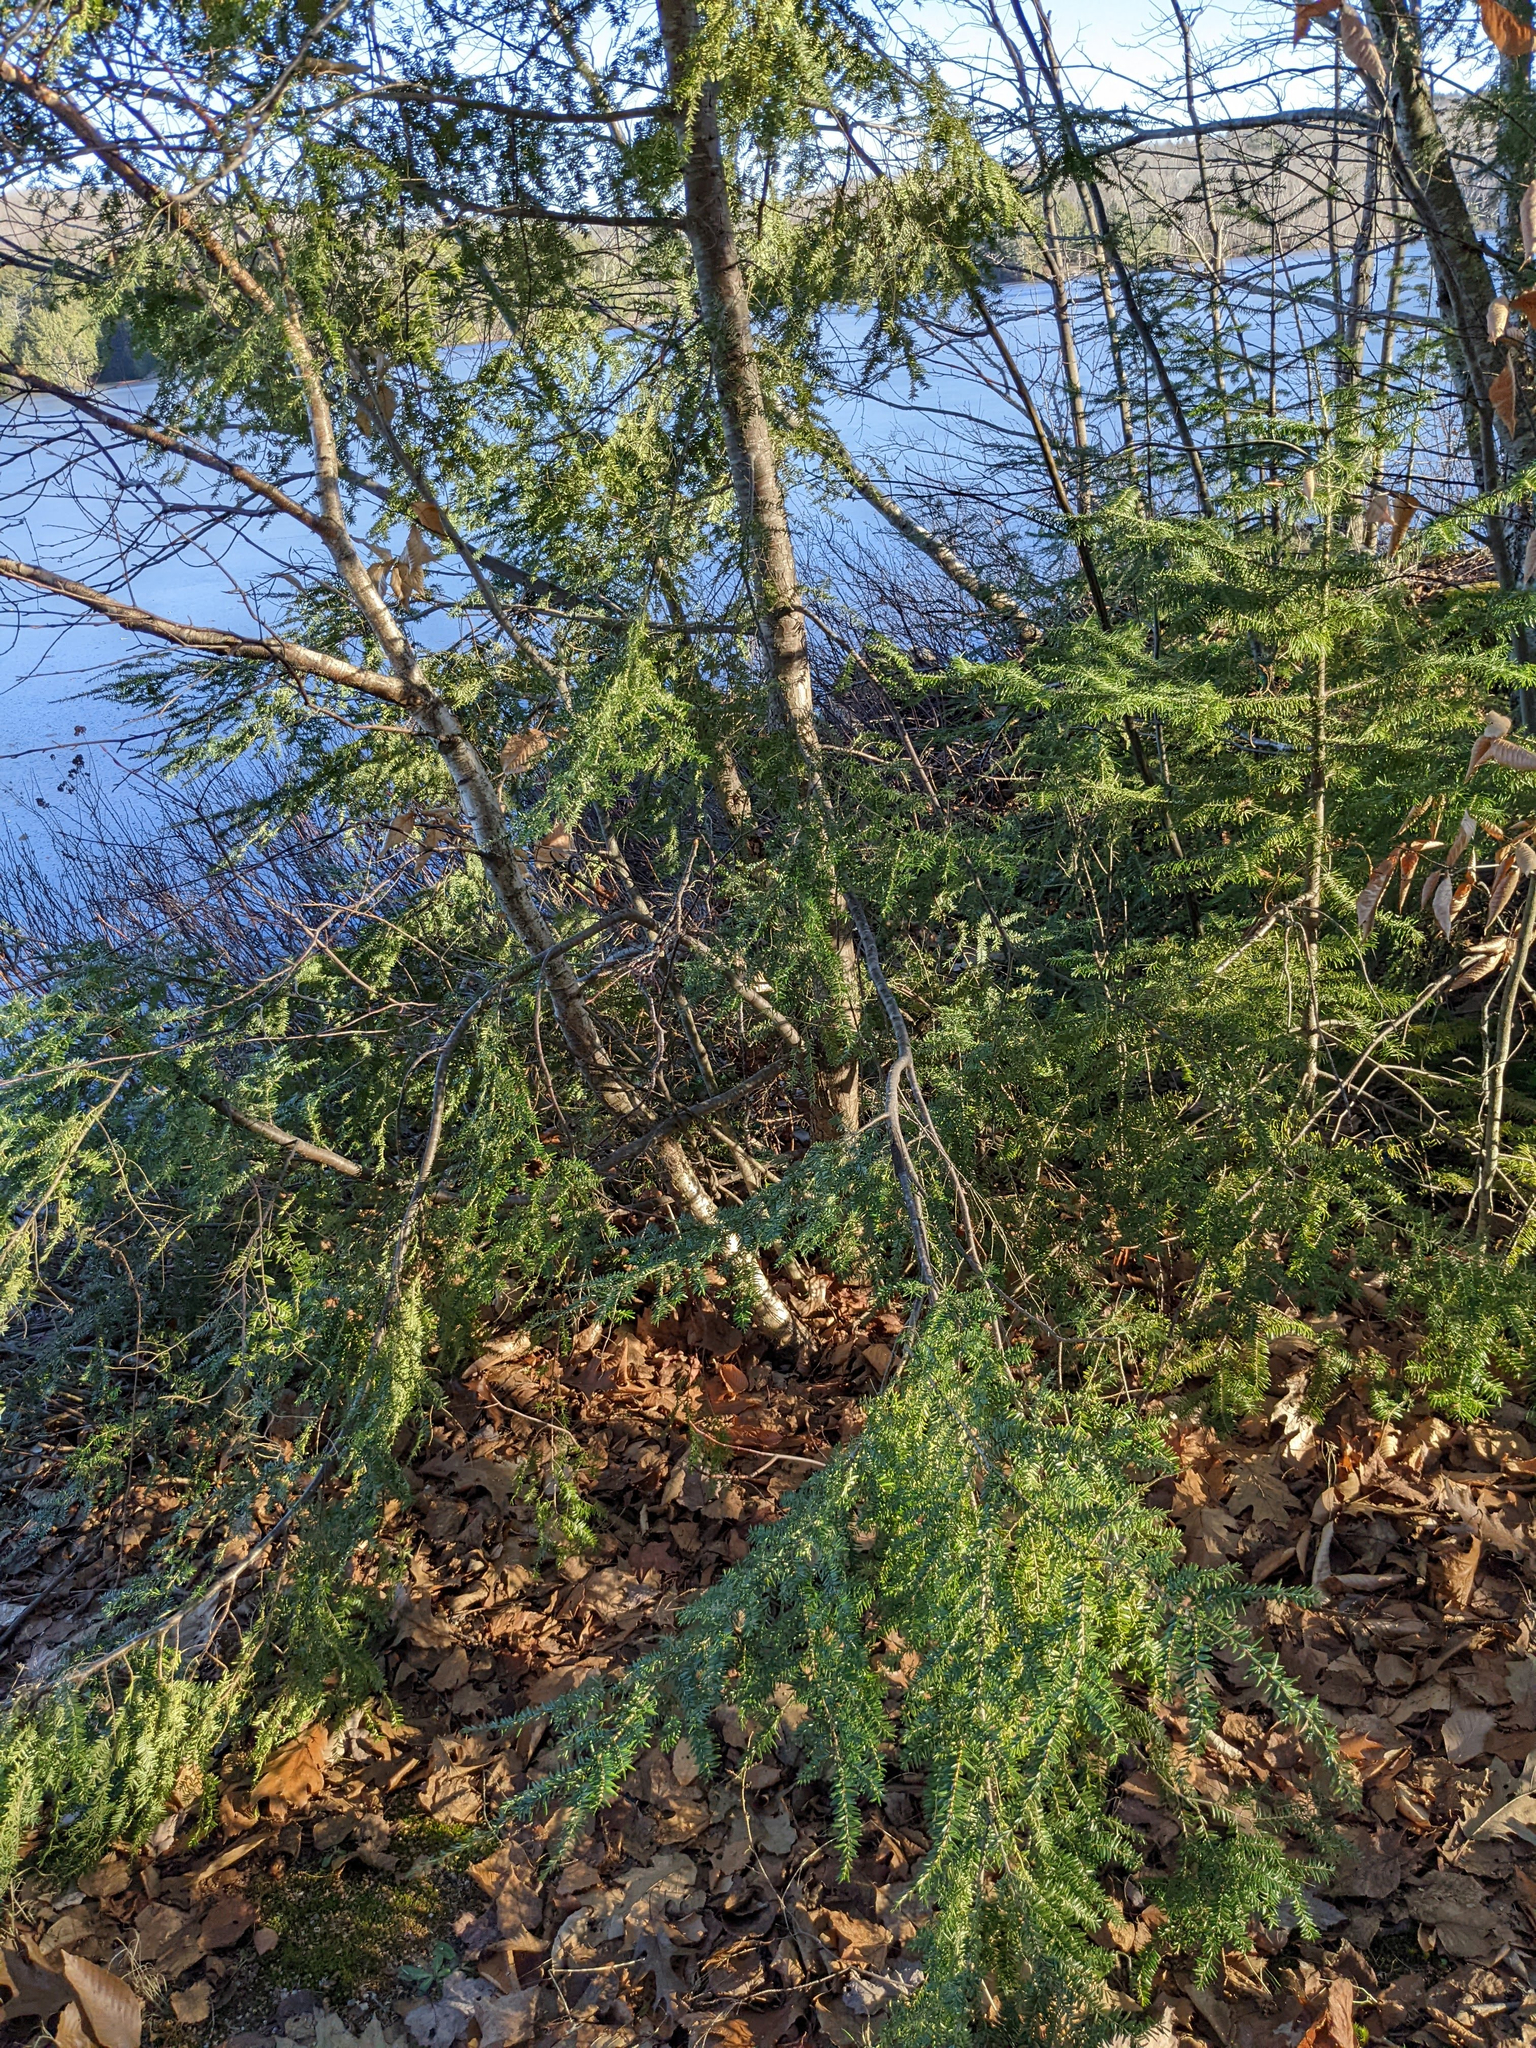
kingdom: Plantae
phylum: Tracheophyta
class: Pinopsida
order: Pinales
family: Pinaceae
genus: Tsuga
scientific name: Tsuga canadensis
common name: Eastern hemlock
